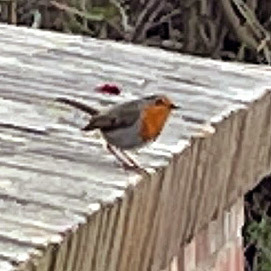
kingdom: Animalia
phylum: Chordata
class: Aves
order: Passeriformes
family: Muscicapidae
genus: Erithacus
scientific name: Erithacus rubecula
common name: European robin
